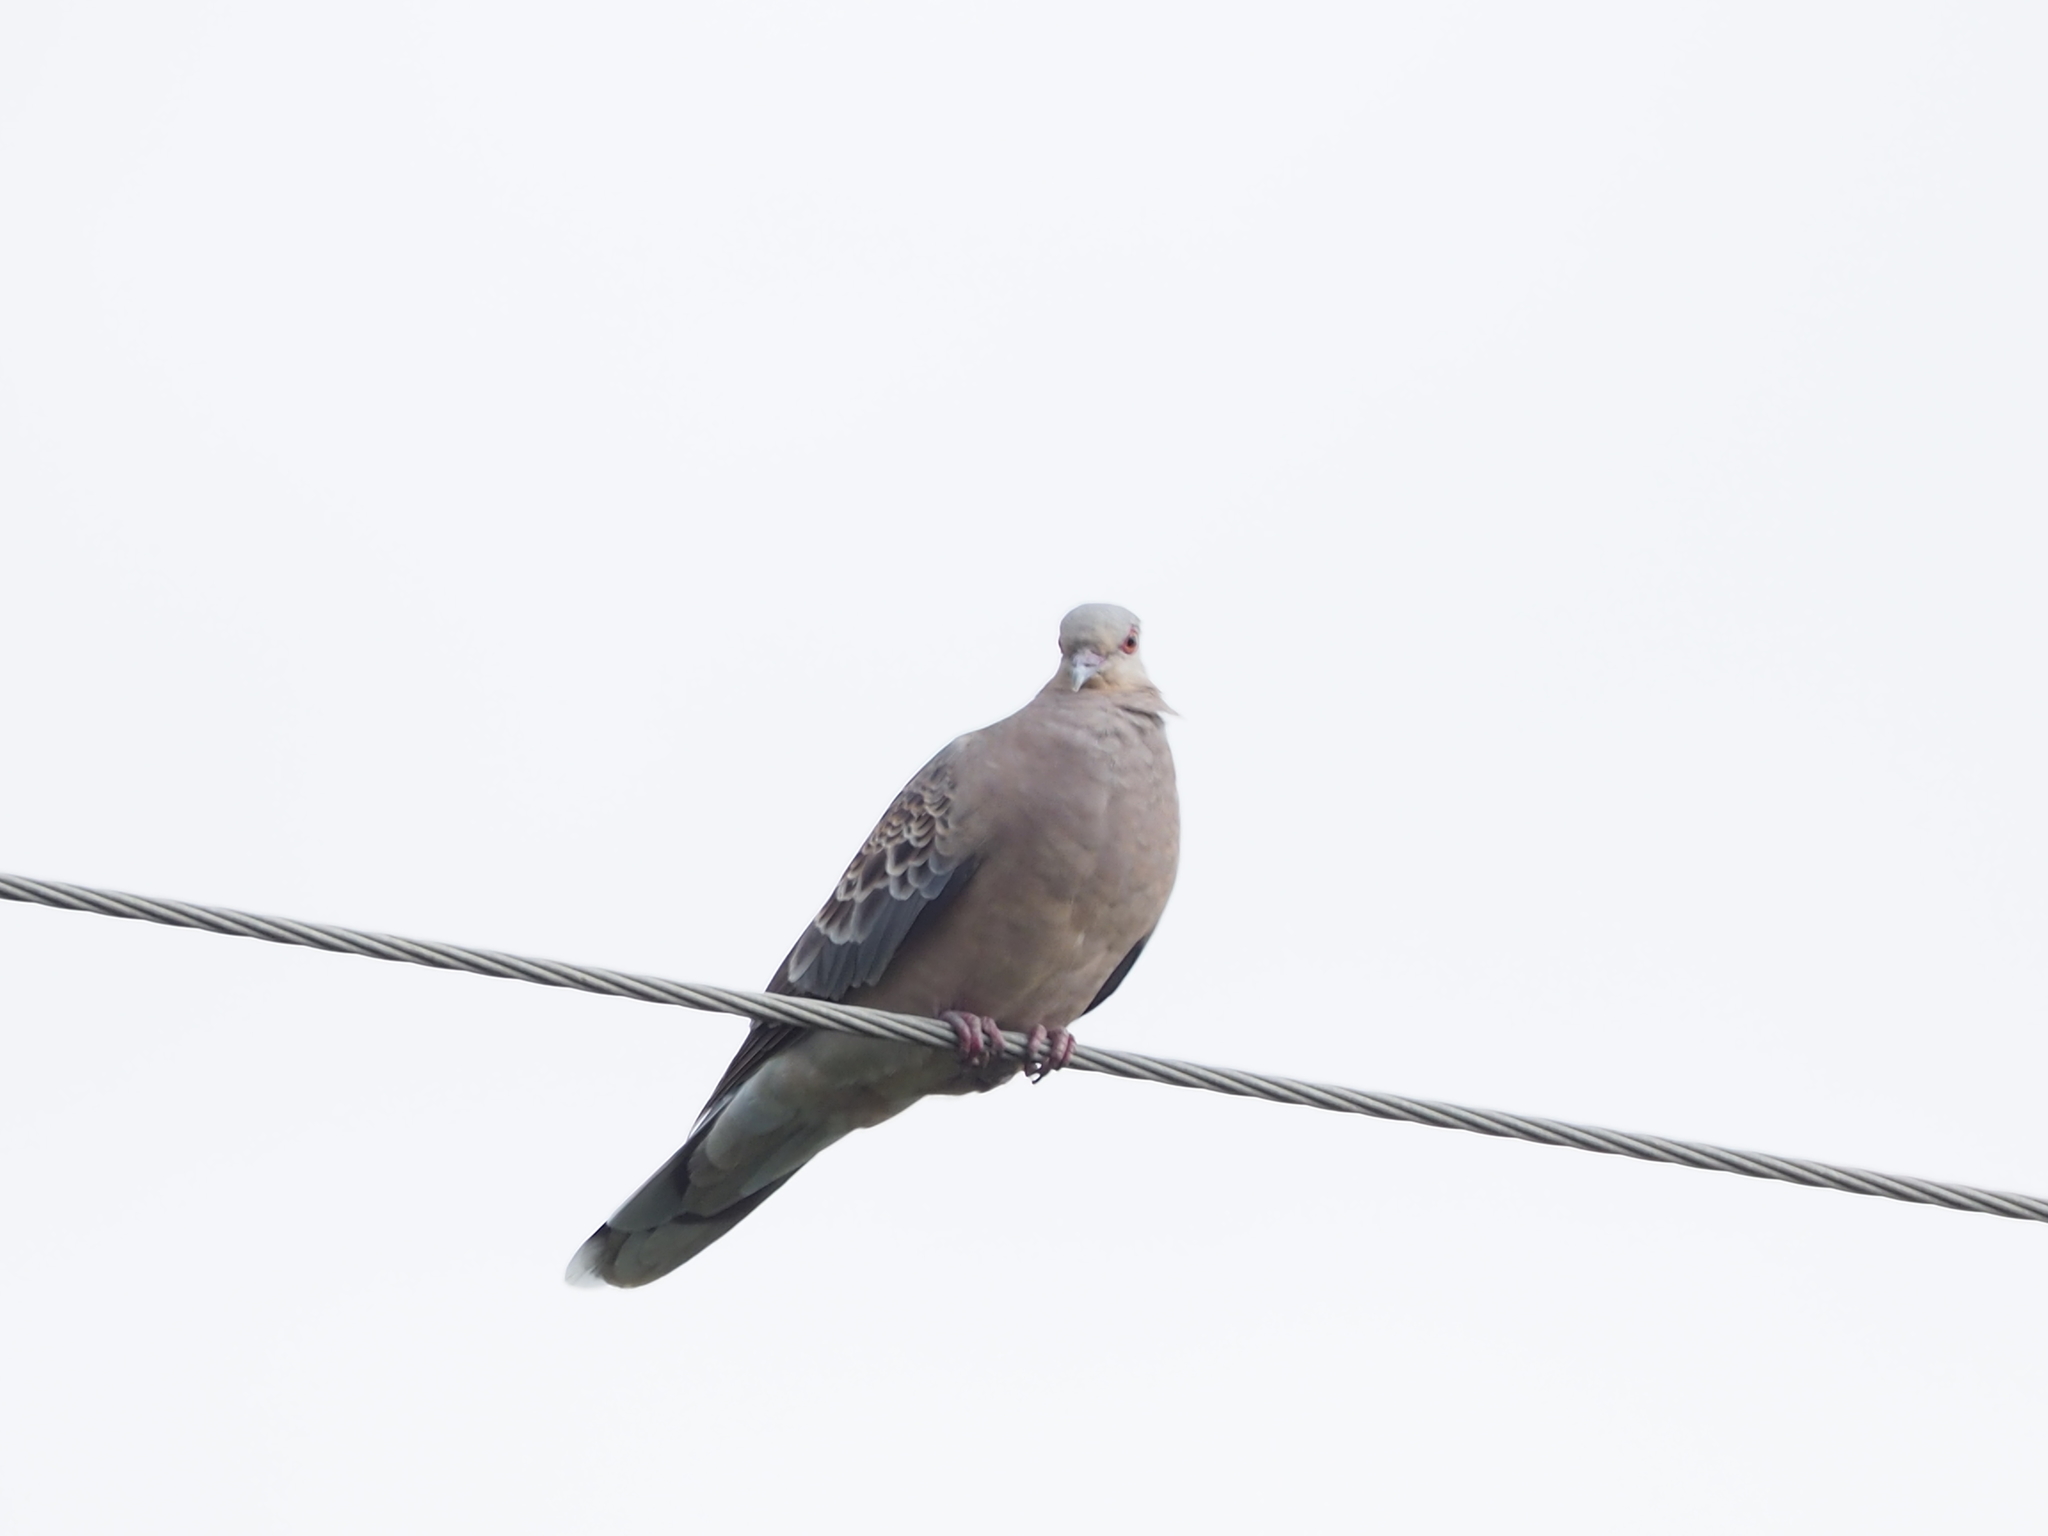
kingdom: Animalia
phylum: Chordata
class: Aves
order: Columbiformes
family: Columbidae
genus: Streptopelia
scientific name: Streptopelia orientalis
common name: Oriental turtle dove
